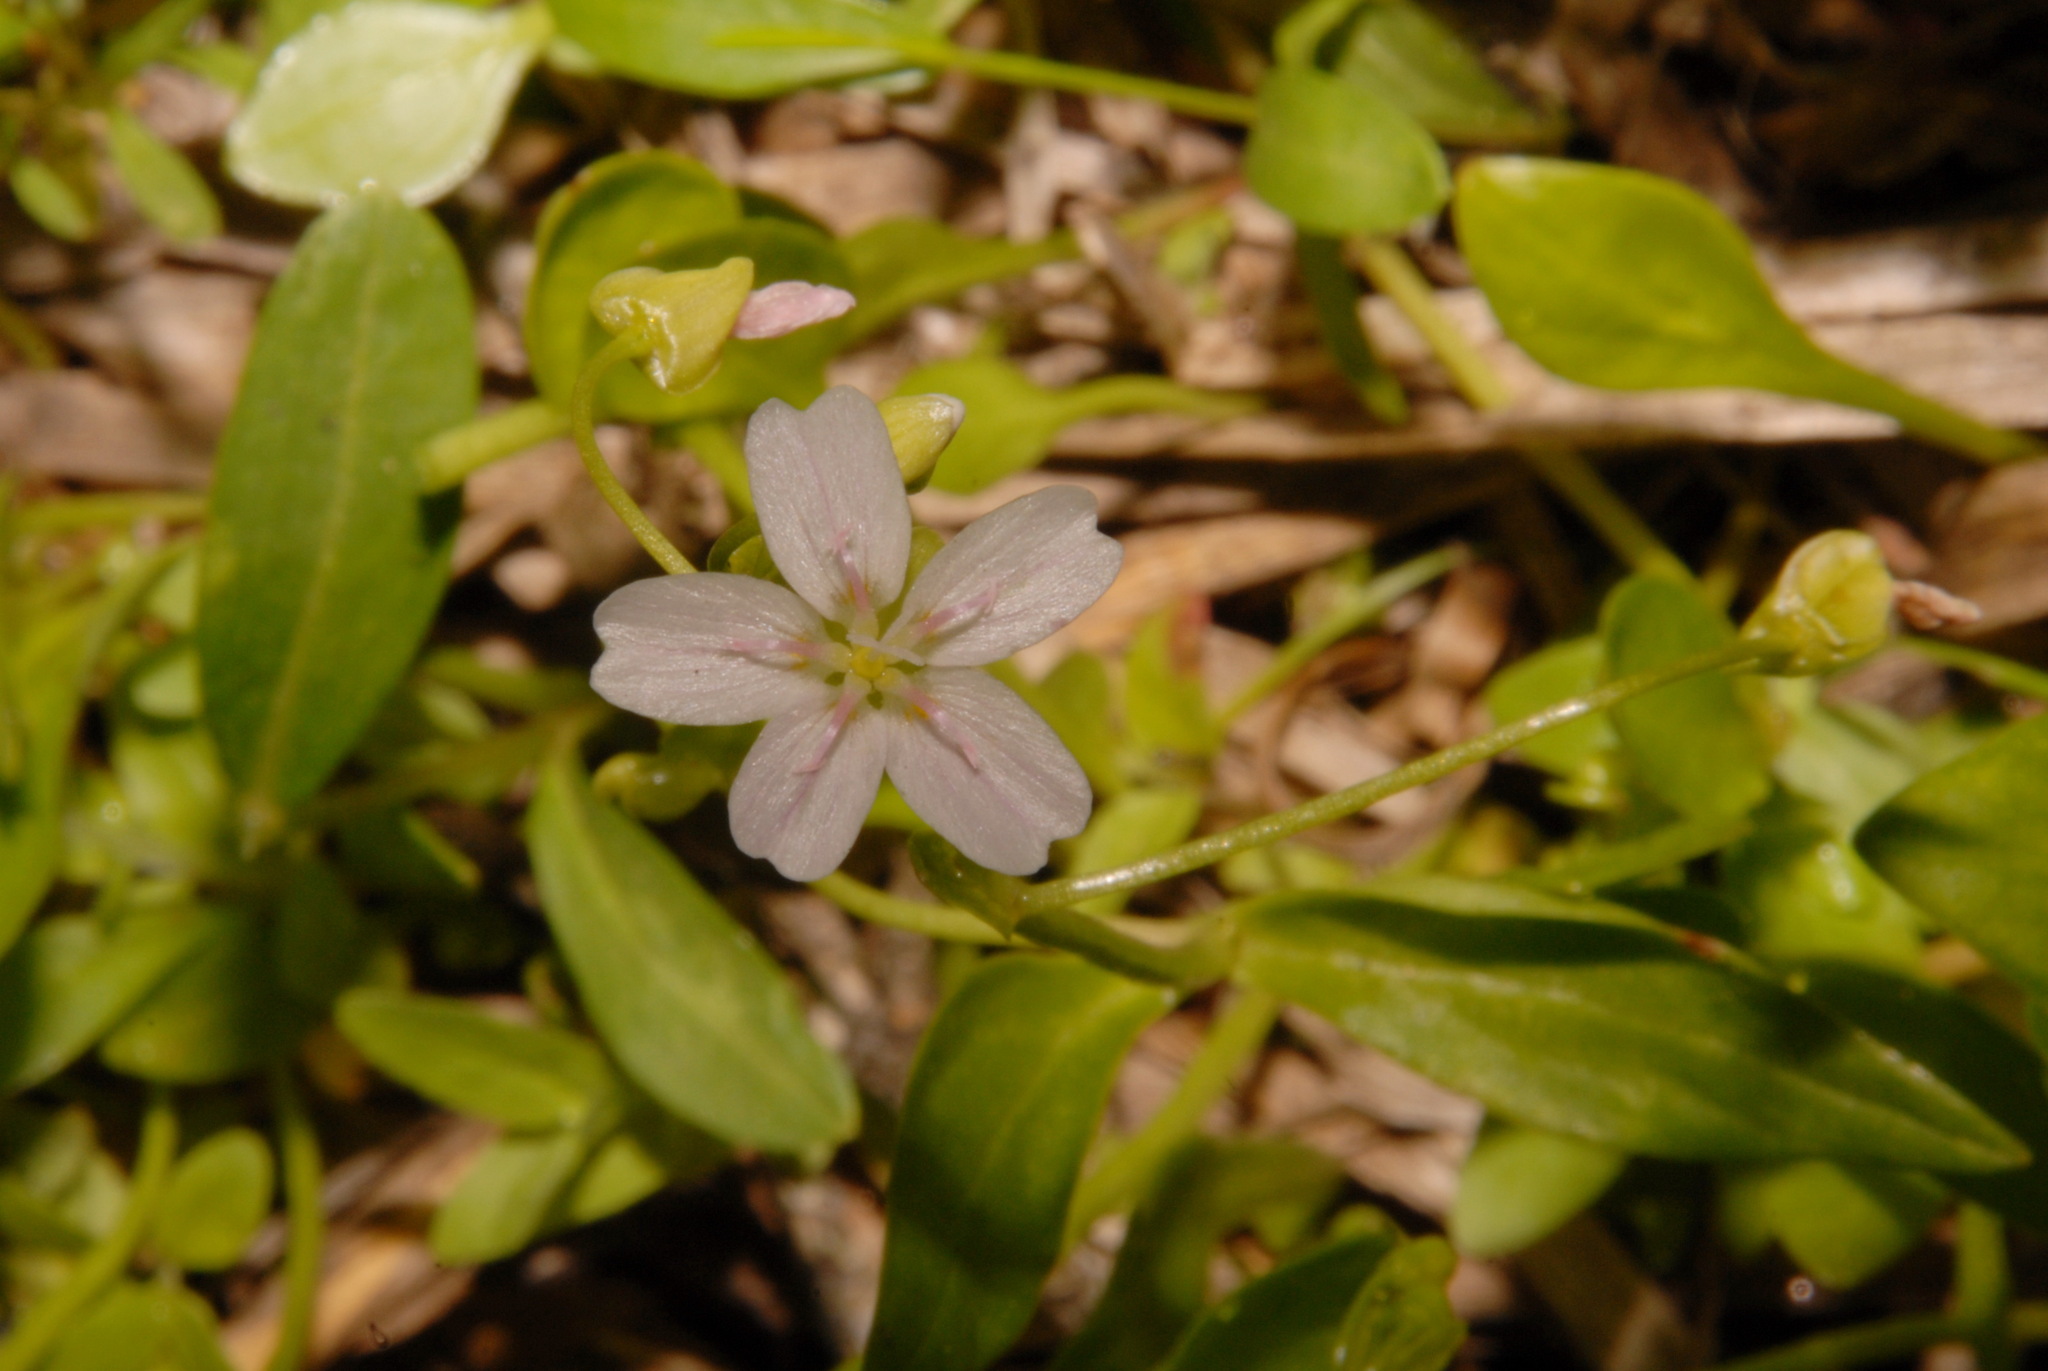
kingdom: Plantae
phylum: Tracheophyta
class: Magnoliopsida
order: Caryophyllales
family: Montiaceae
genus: Claytonia
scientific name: Claytonia palustris
